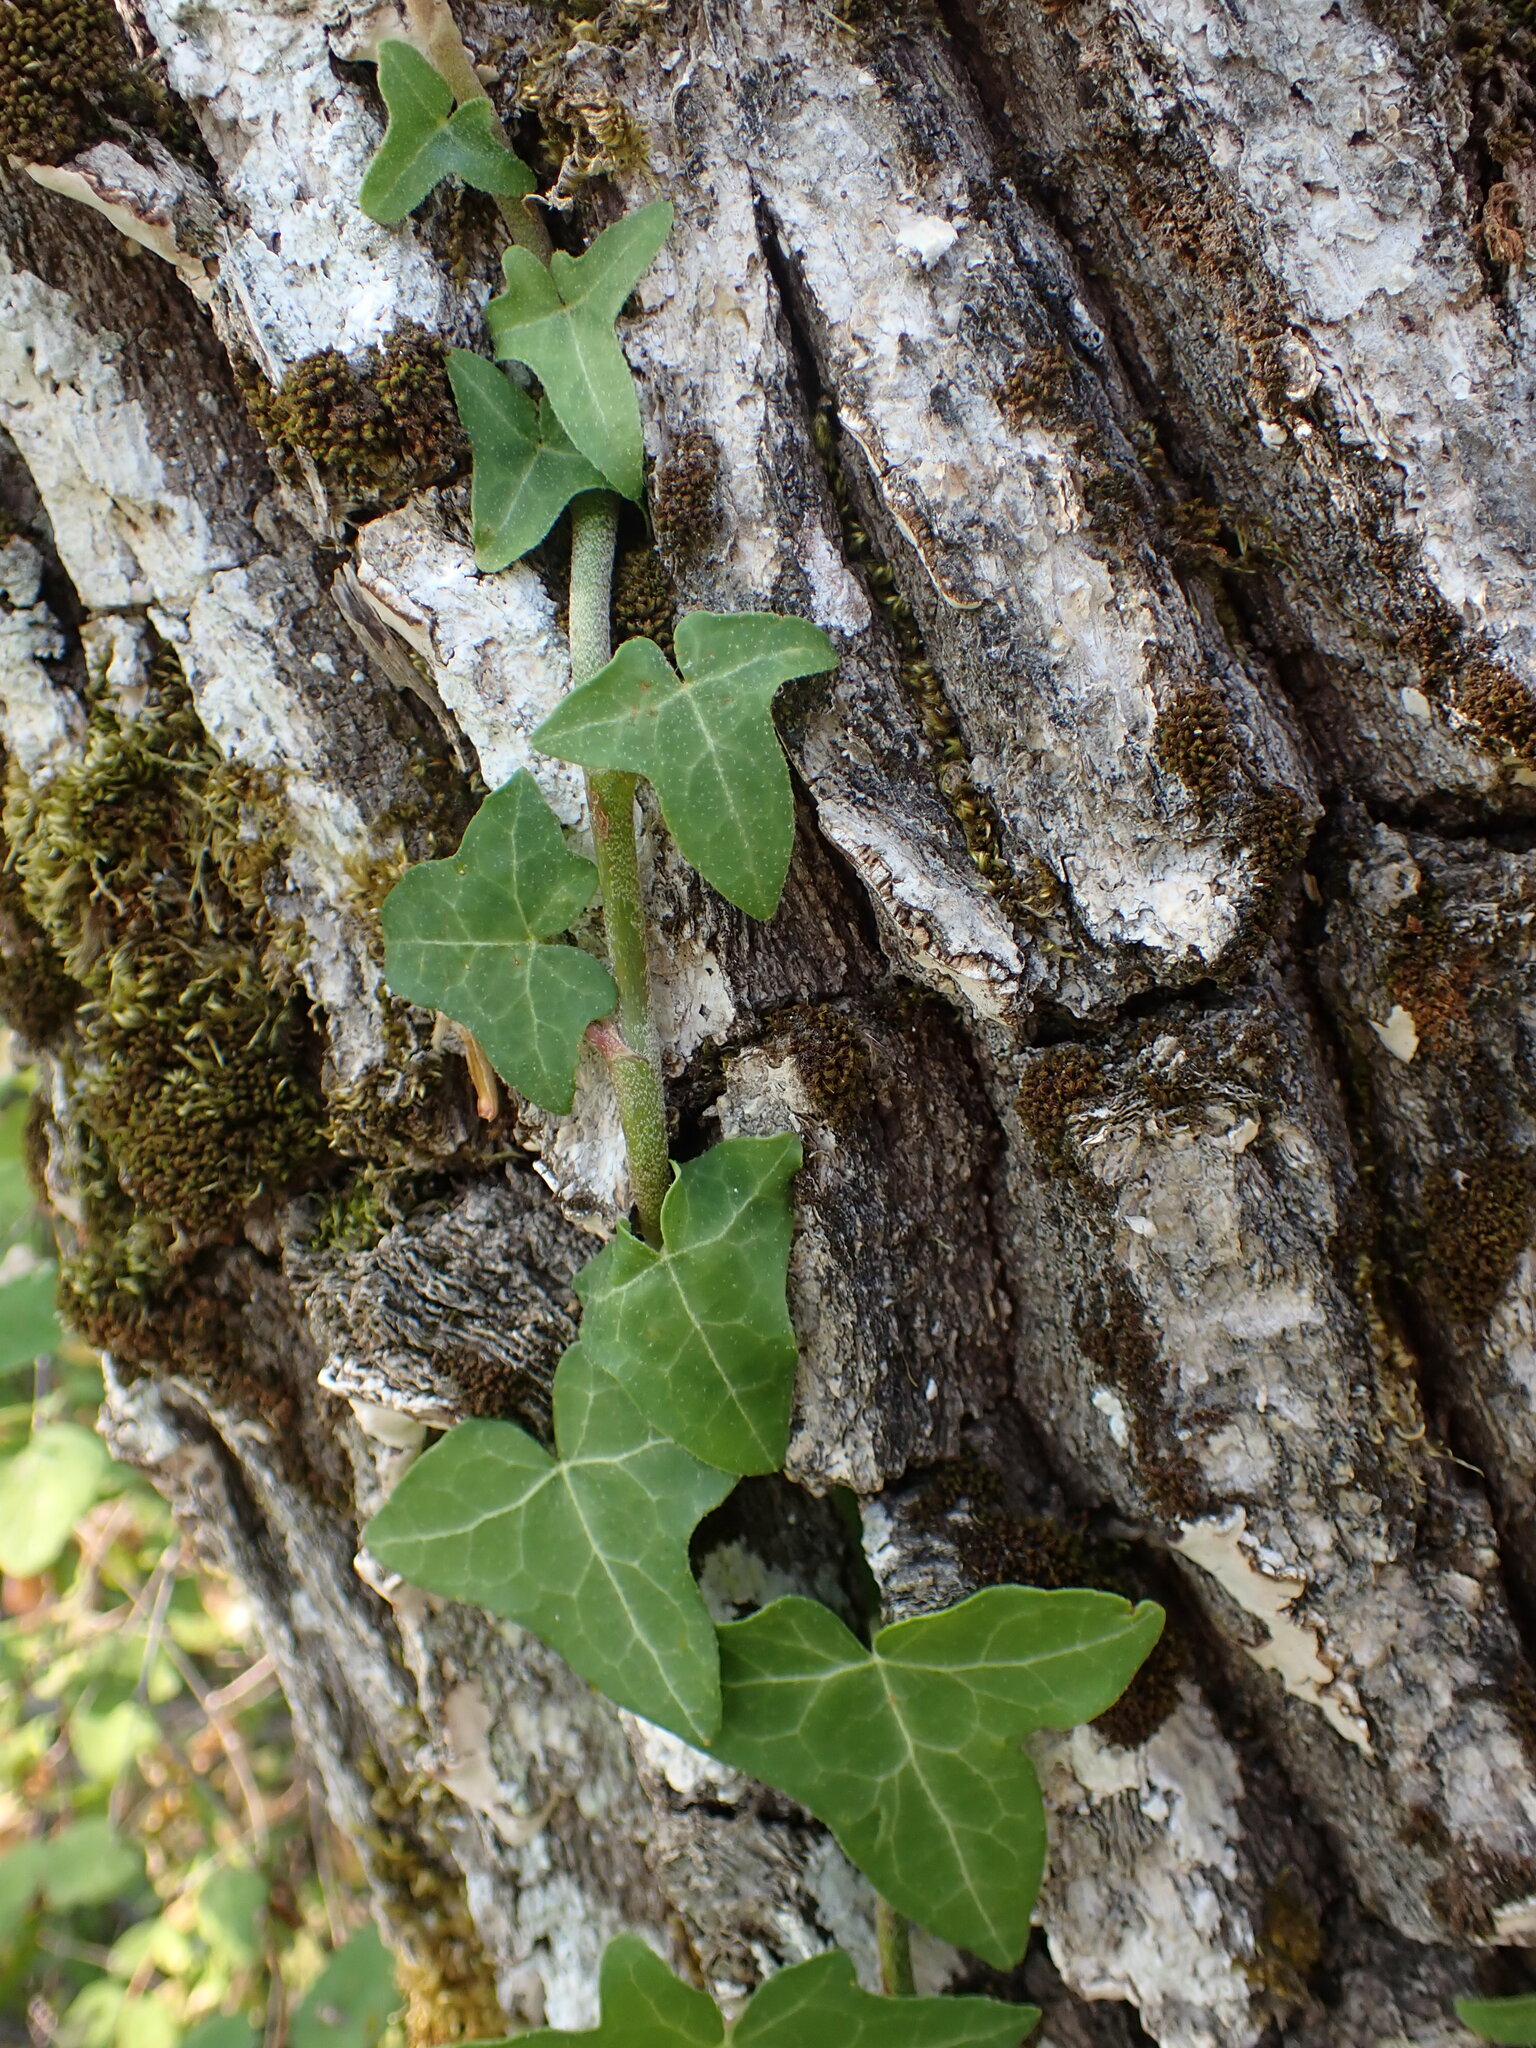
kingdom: Plantae
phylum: Tracheophyta
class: Magnoliopsida
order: Apiales
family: Araliaceae
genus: Hedera
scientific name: Hedera helix
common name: Ivy
